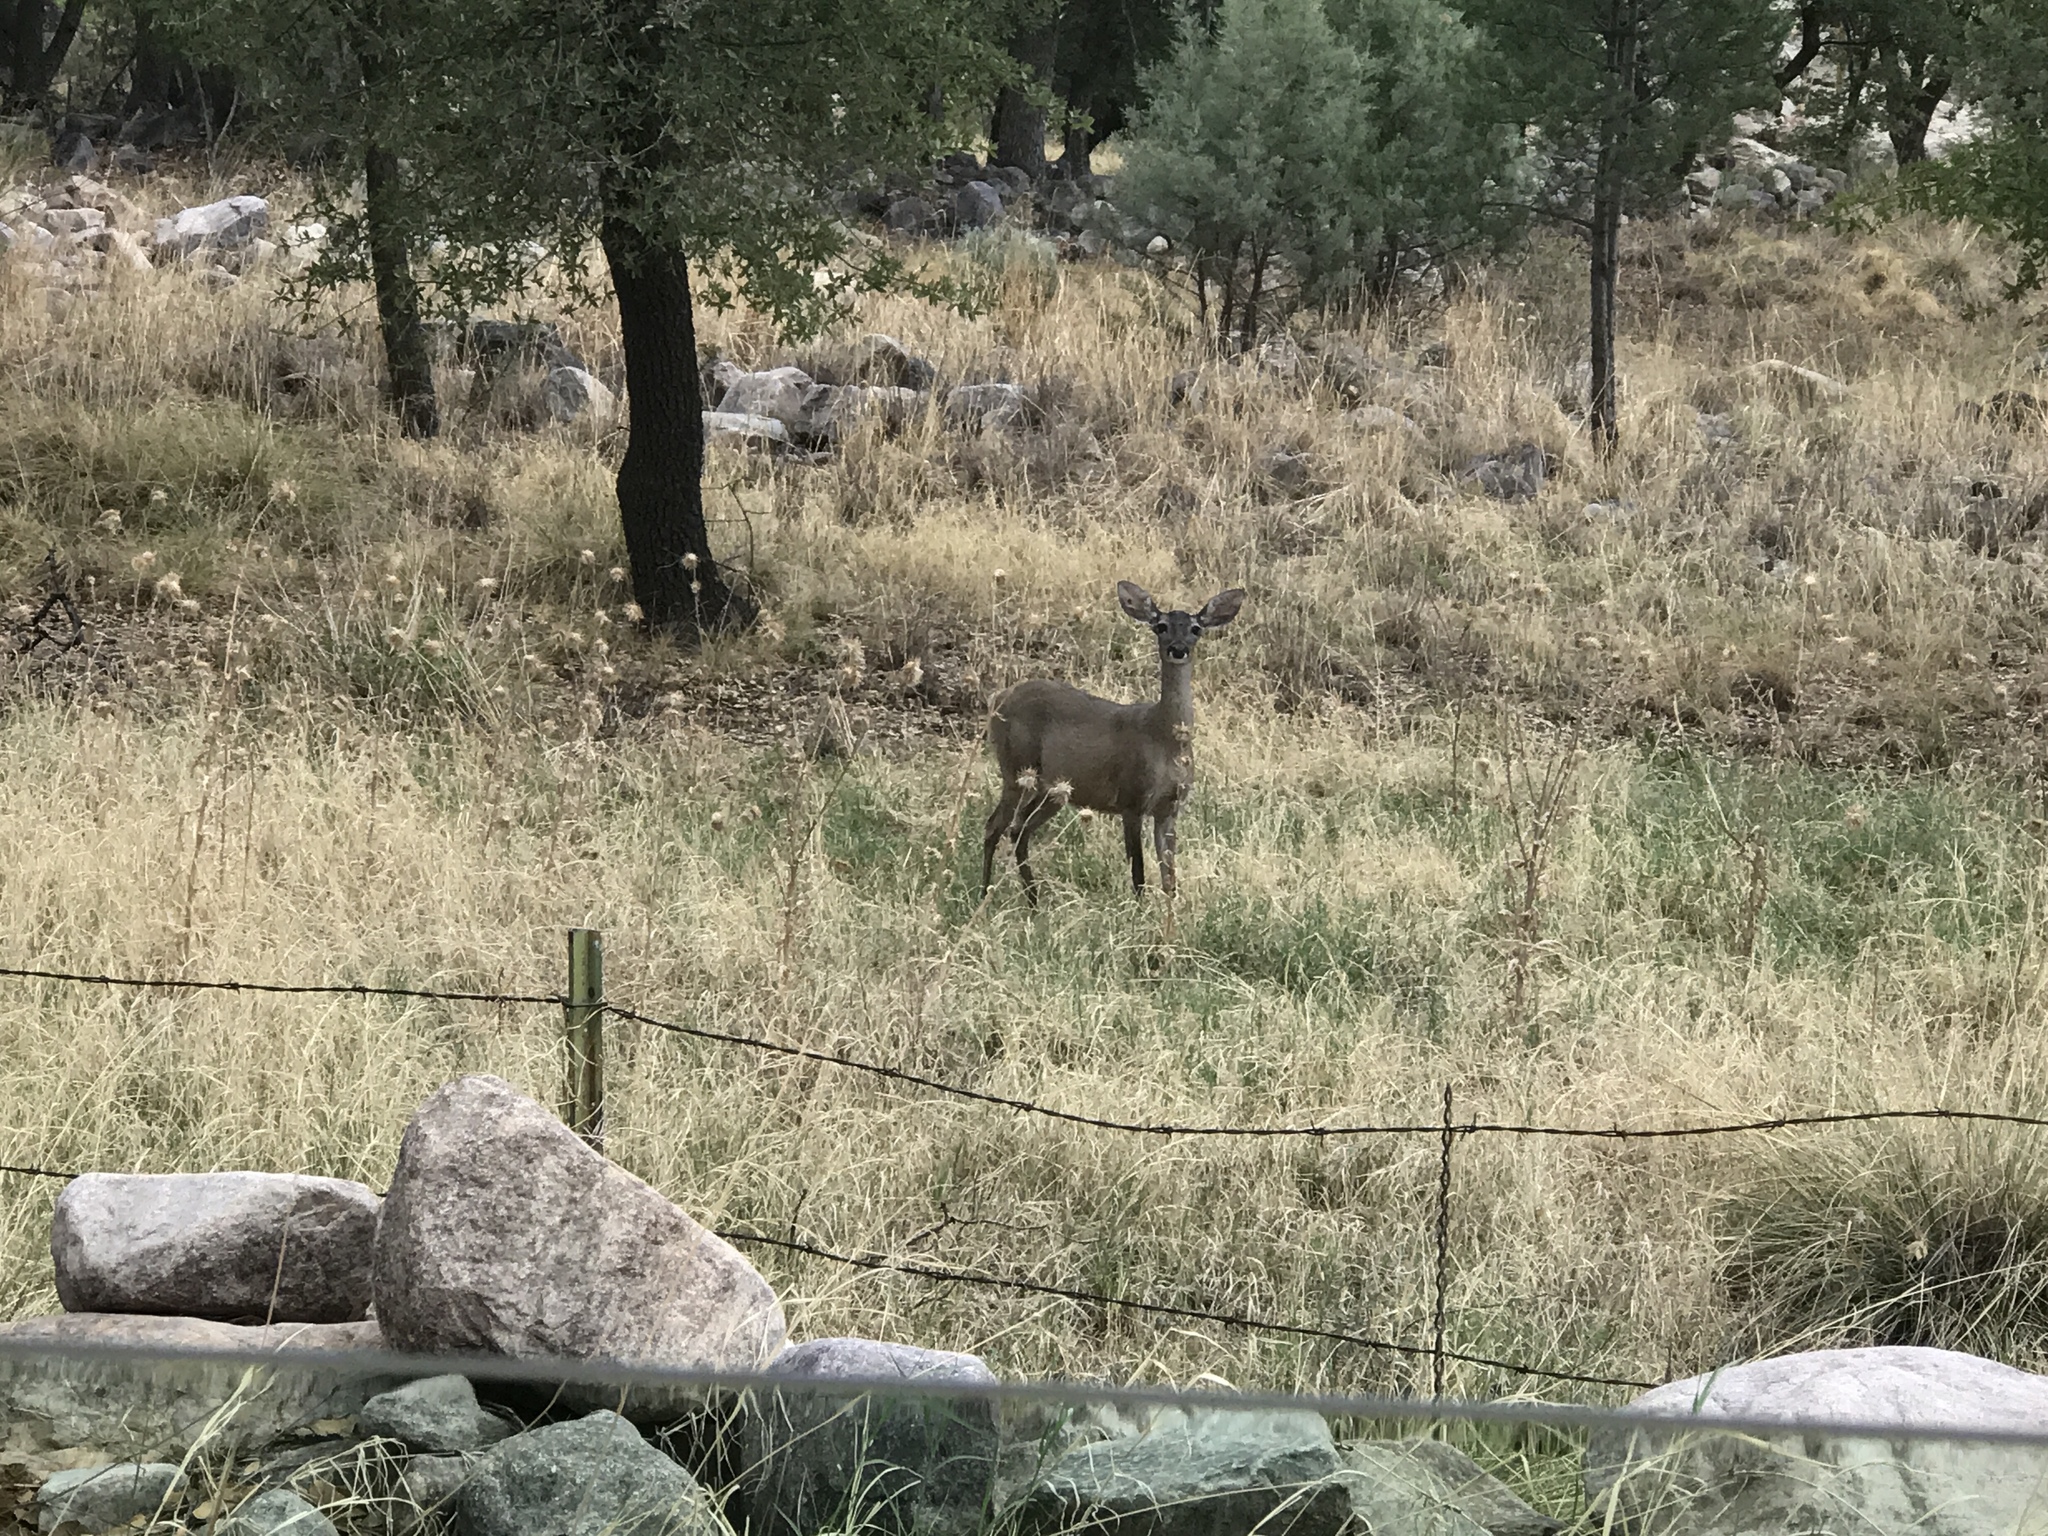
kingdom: Animalia
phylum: Chordata
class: Mammalia
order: Artiodactyla
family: Cervidae
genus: Odocoileus
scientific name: Odocoileus virginianus
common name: White-tailed deer
